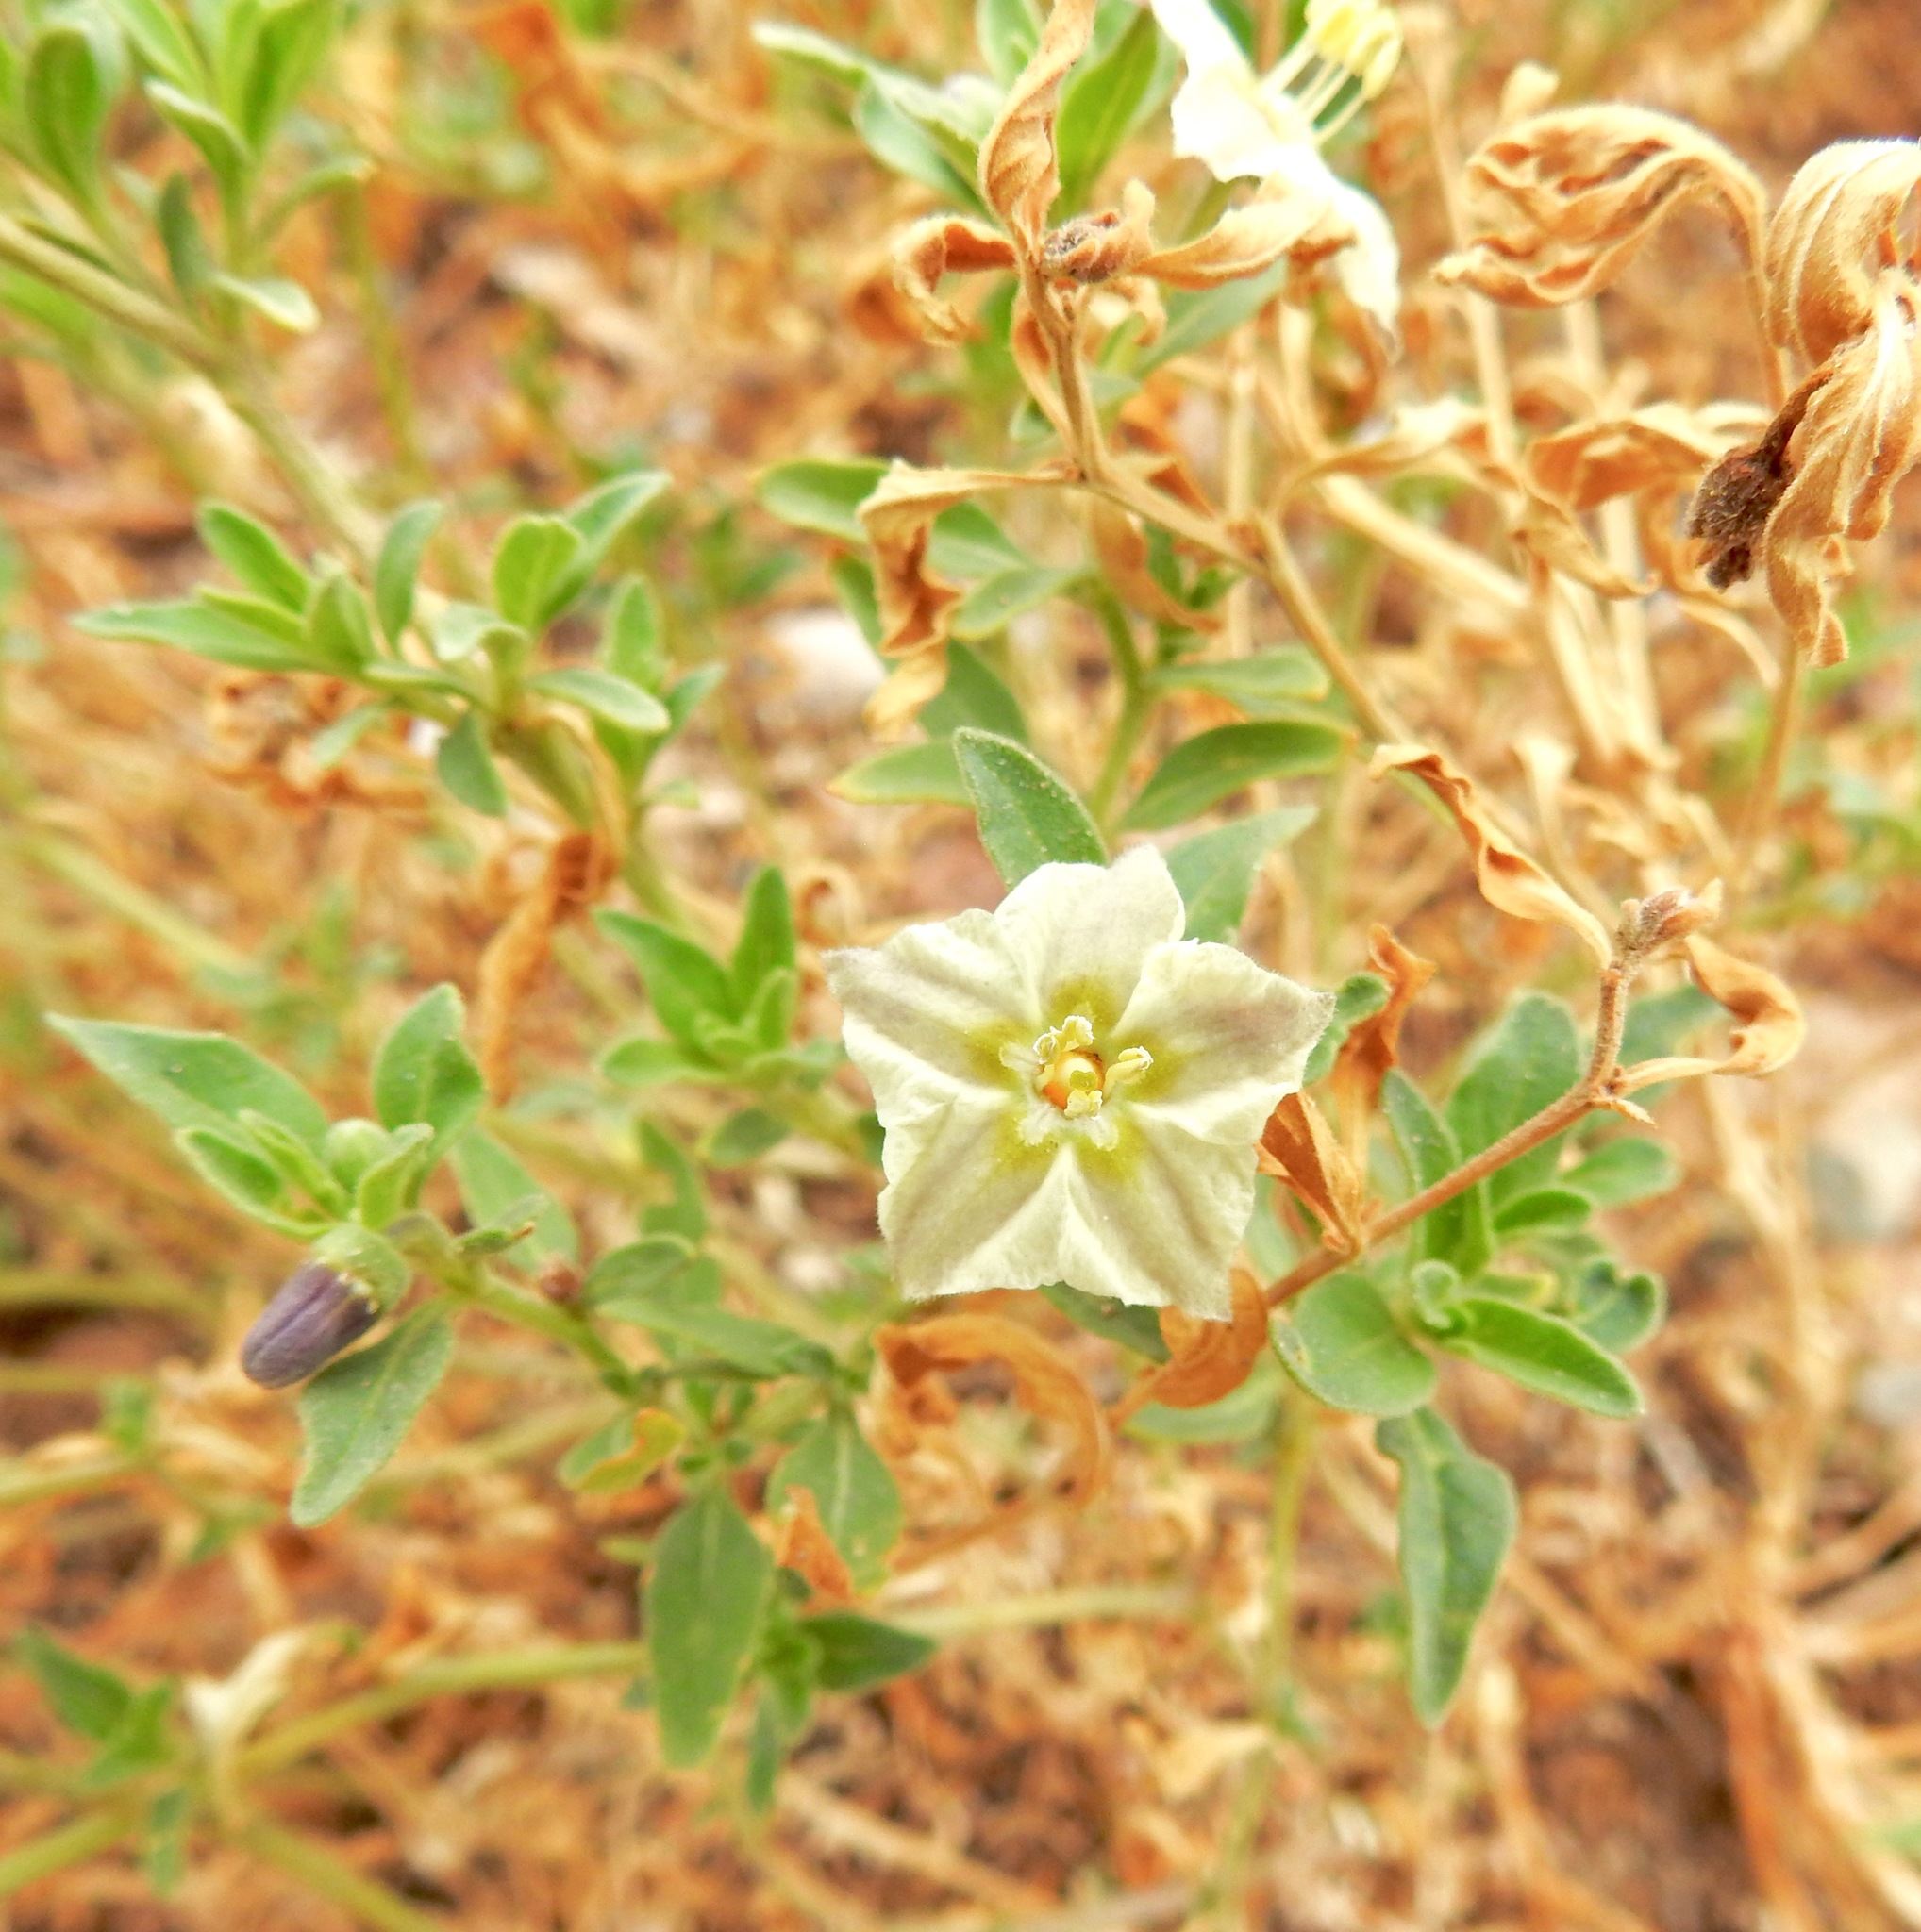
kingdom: Plantae
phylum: Tracheophyta
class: Magnoliopsida
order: Solanales
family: Solanaceae
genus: Chamaesaracha
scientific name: Chamaesaracha sordida
